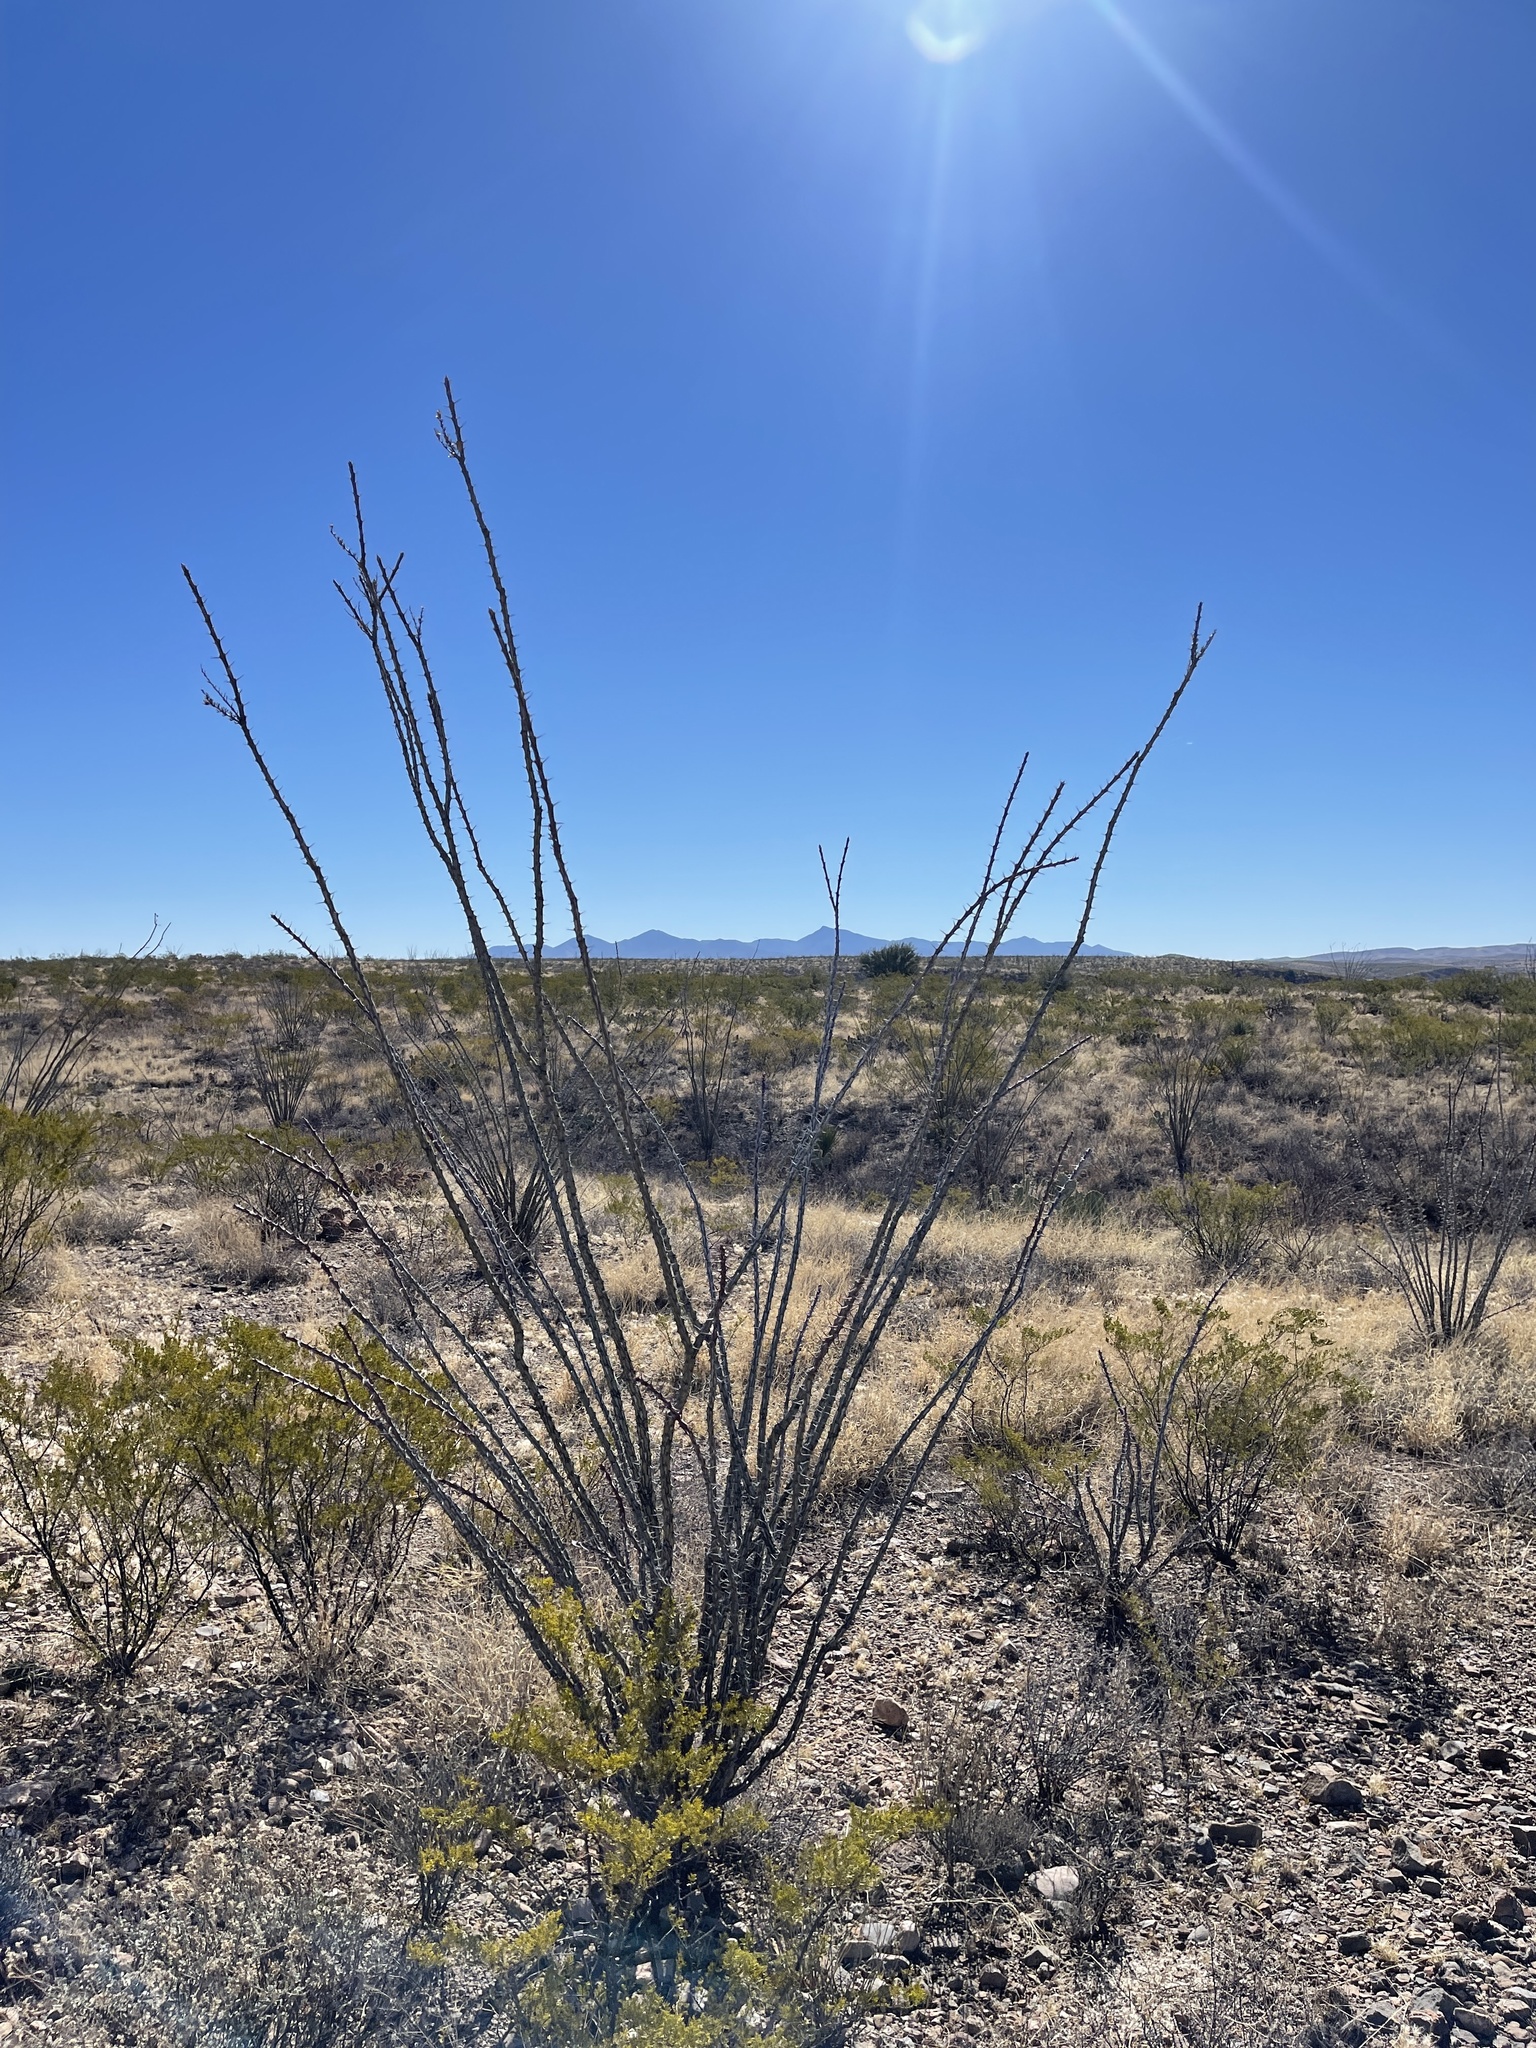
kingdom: Plantae
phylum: Tracheophyta
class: Magnoliopsida
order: Ericales
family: Fouquieriaceae
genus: Fouquieria
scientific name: Fouquieria splendens
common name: Vine-cactus
